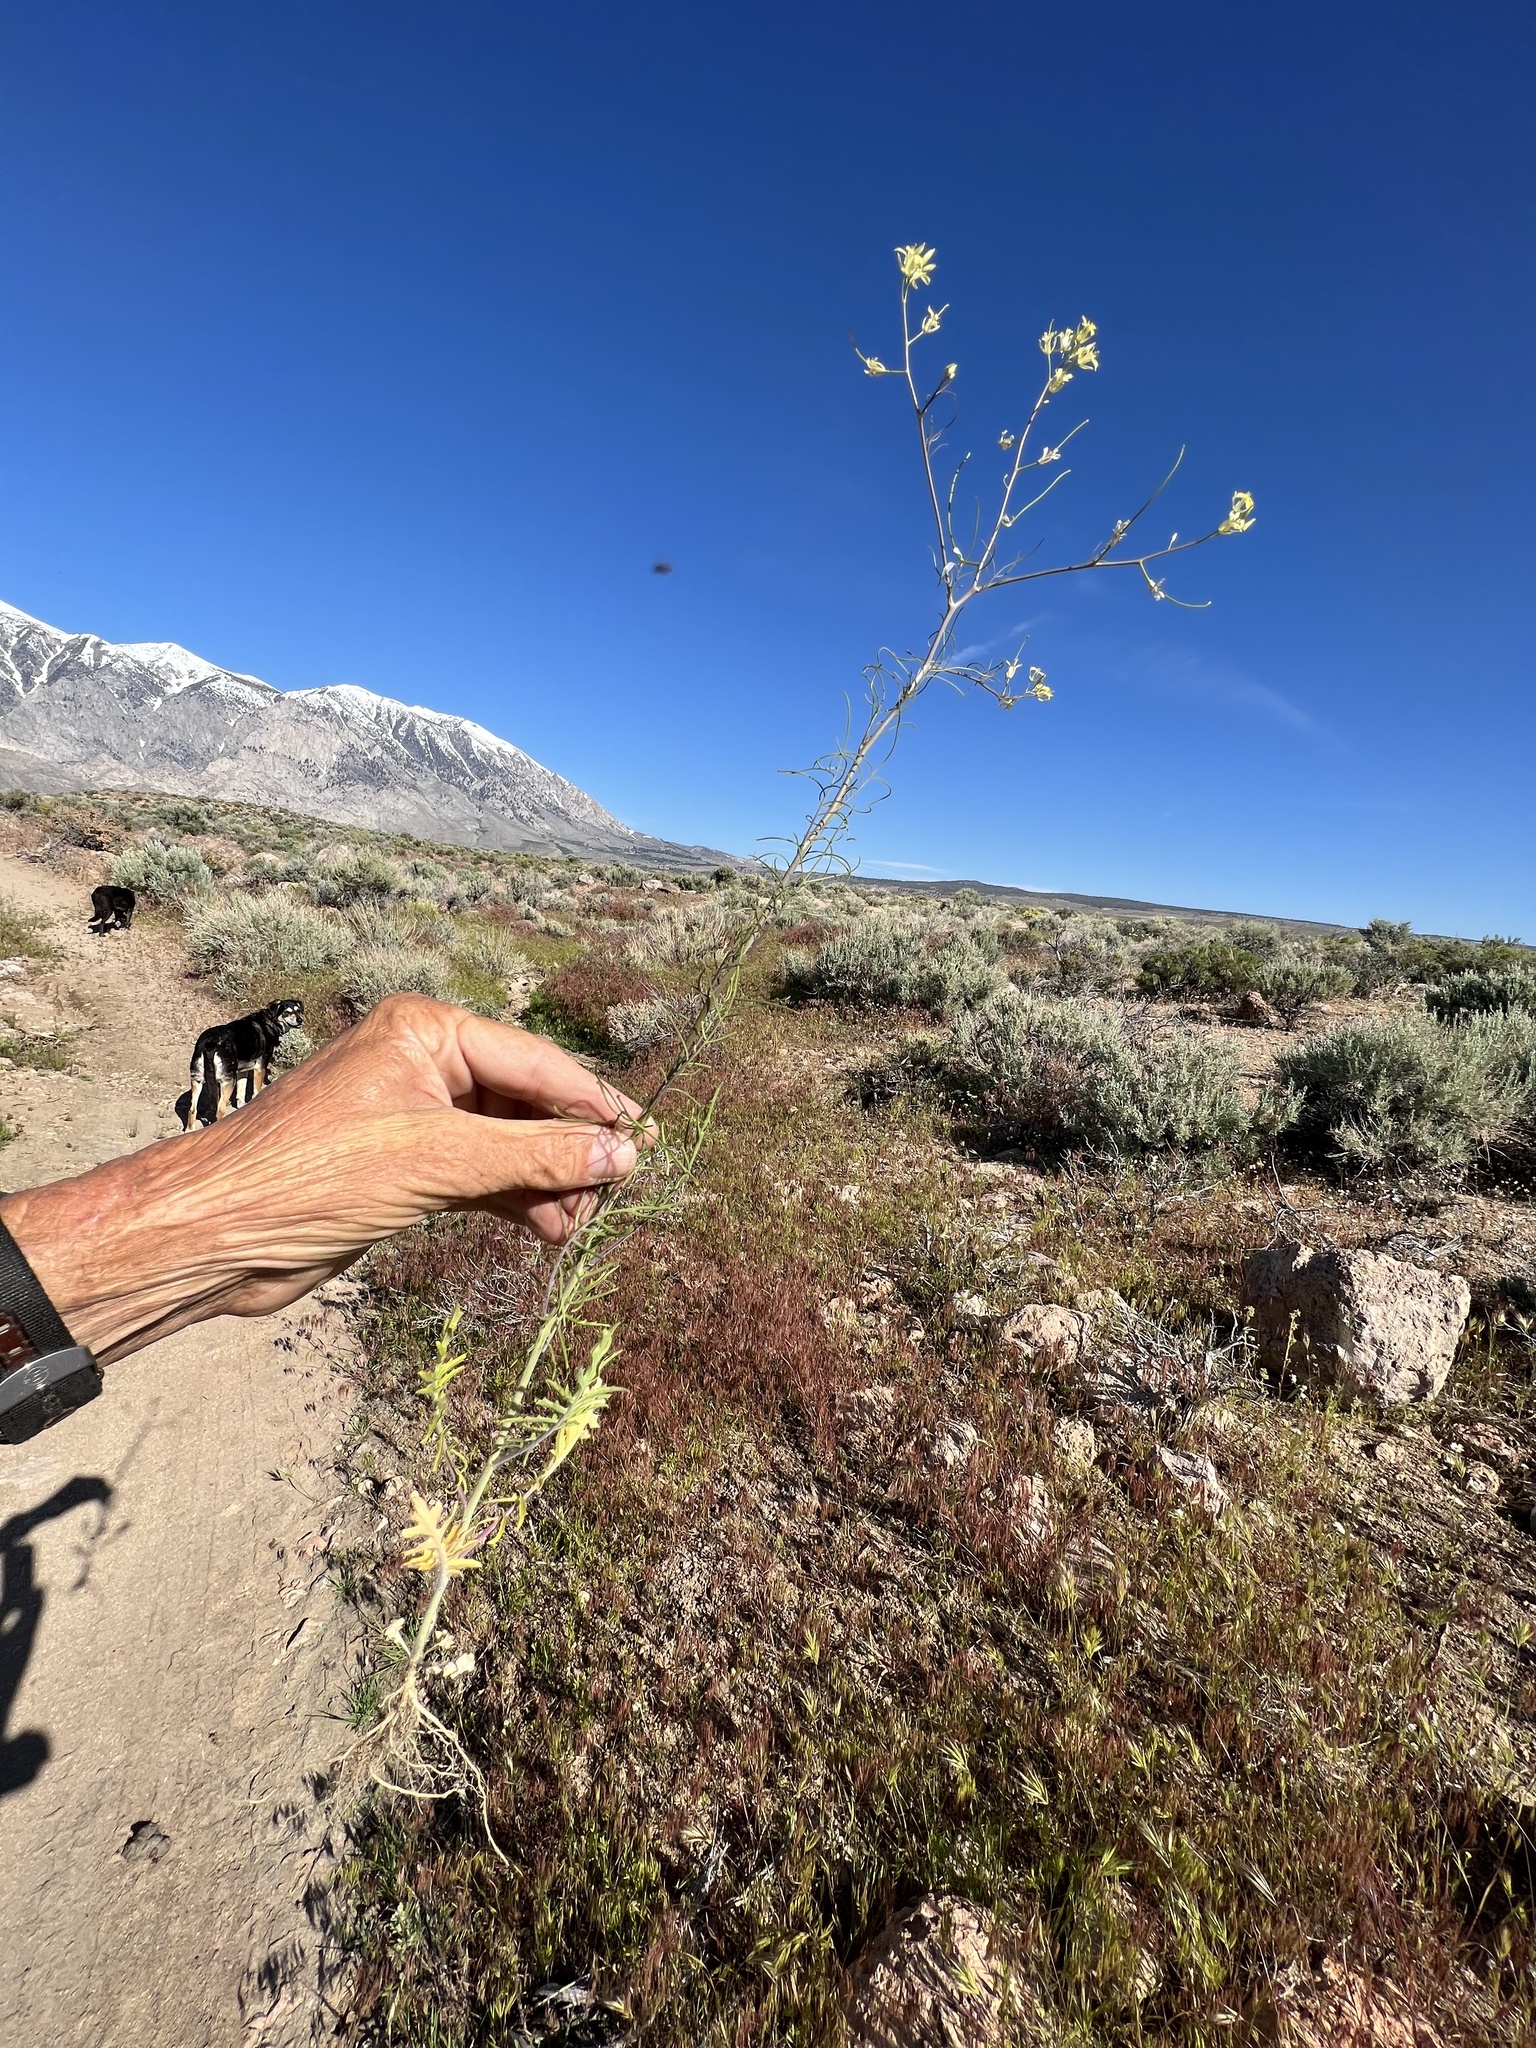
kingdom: Plantae
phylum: Tracheophyta
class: Magnoliopsida
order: Brassicales
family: Brassicaceae
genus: Sisymbrium
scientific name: Sisymbrium altissimum
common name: Tall rocket
